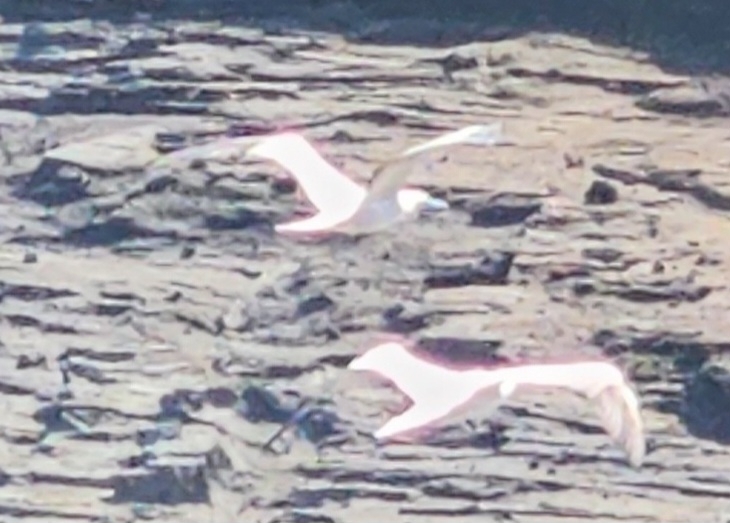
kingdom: Animalia
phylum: Chordata
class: Aves
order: Suliformes
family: Sulidae
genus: Sula
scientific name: Sula sula
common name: Red-footed booby
